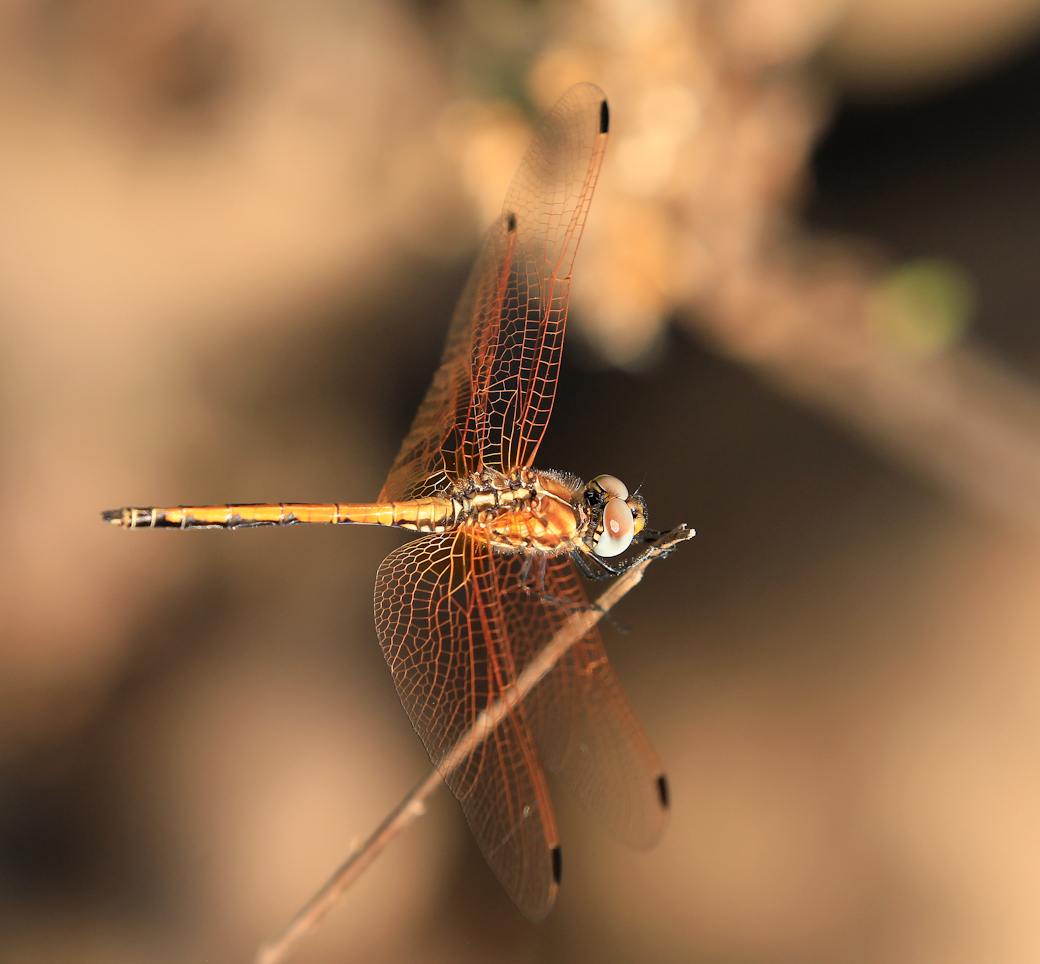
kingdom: Animalia
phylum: Arthropoda
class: Insecta
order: Lepidoptera
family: Erebidae
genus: Ceryx
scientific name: Ceryx fulvescens
